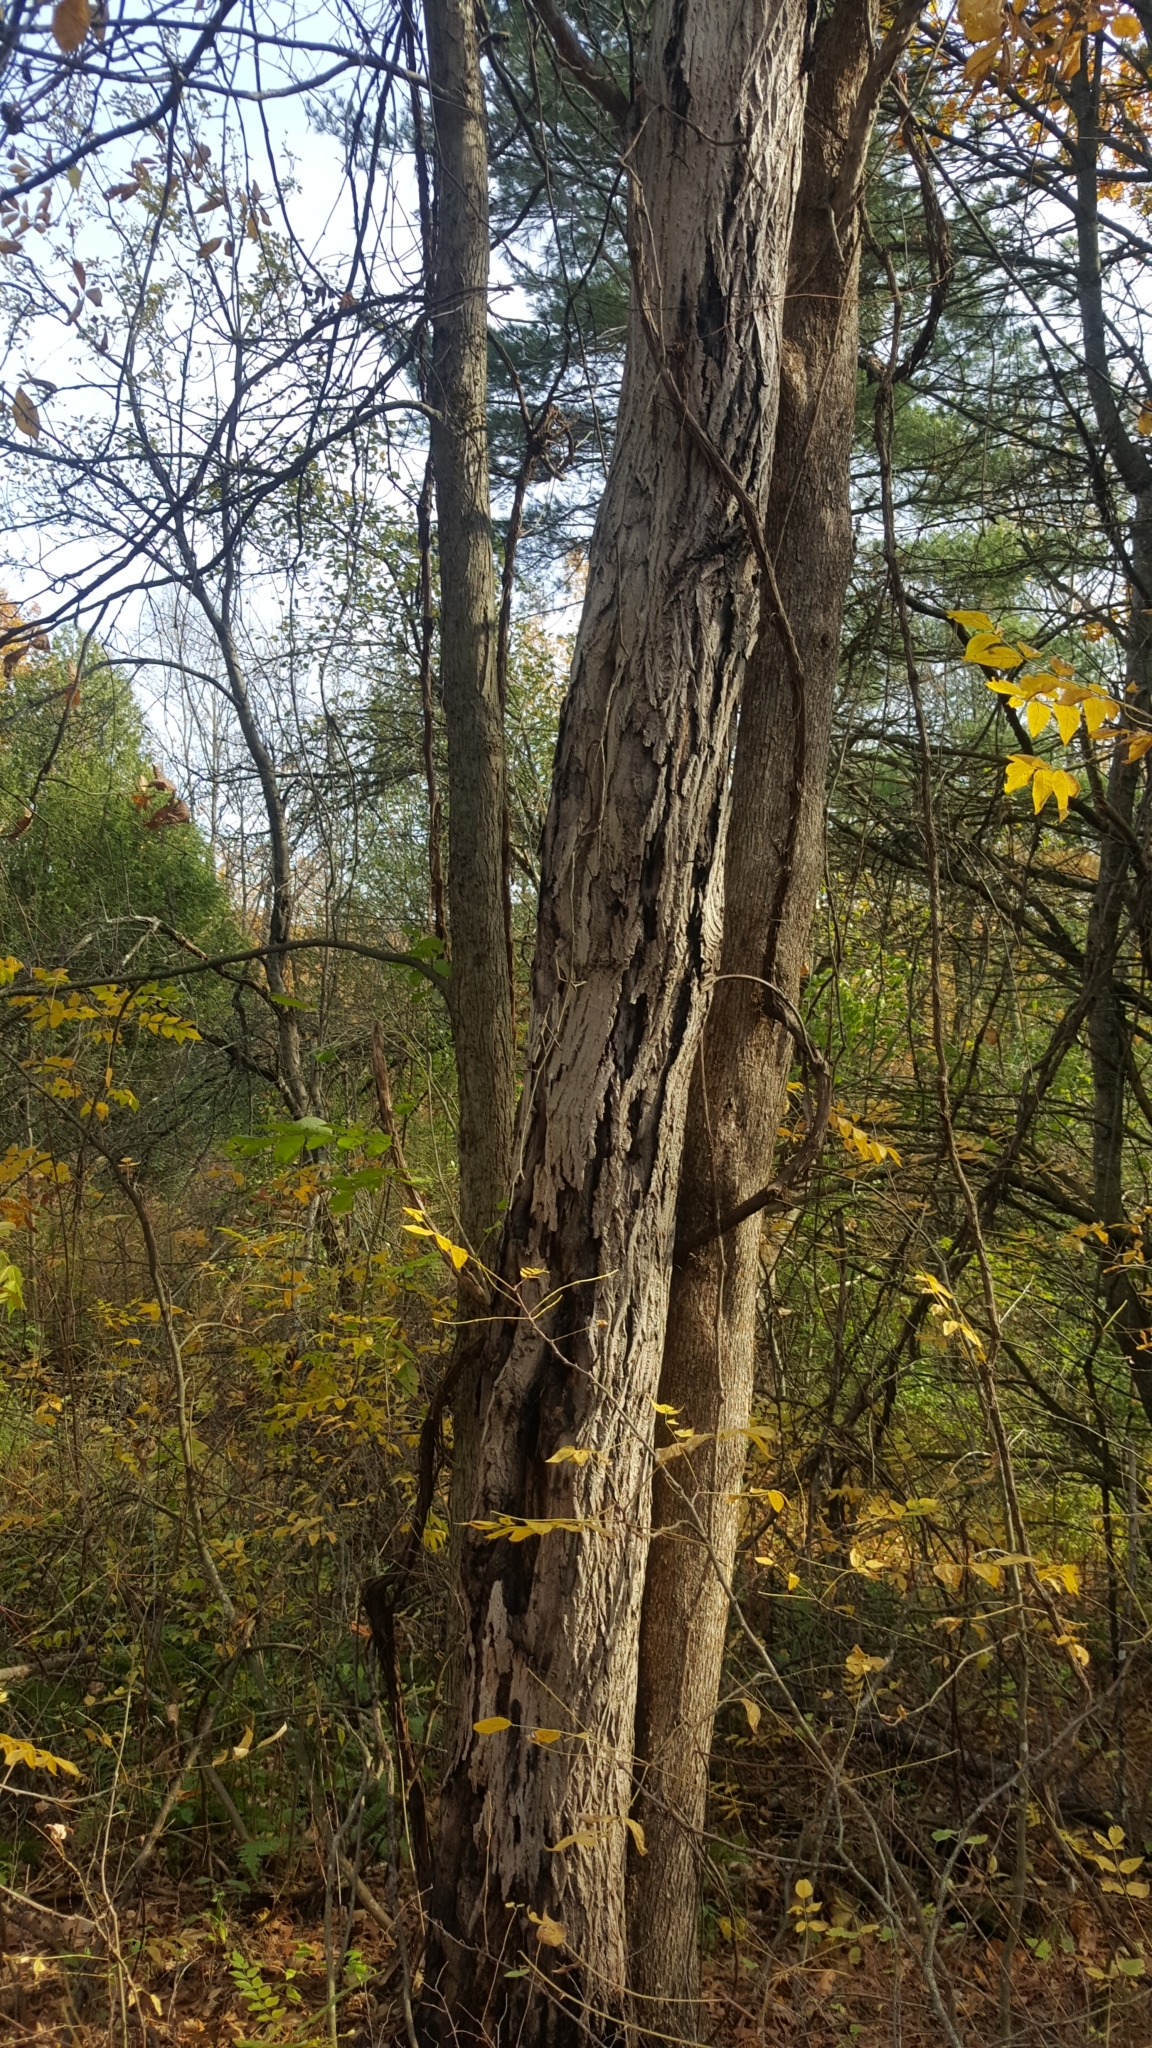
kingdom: Plantae
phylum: Tracheophyta
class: Magnoliopsida
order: Fagales
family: Juglandaceae
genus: Juglans
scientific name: Juglans cinerea
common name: Butternut
